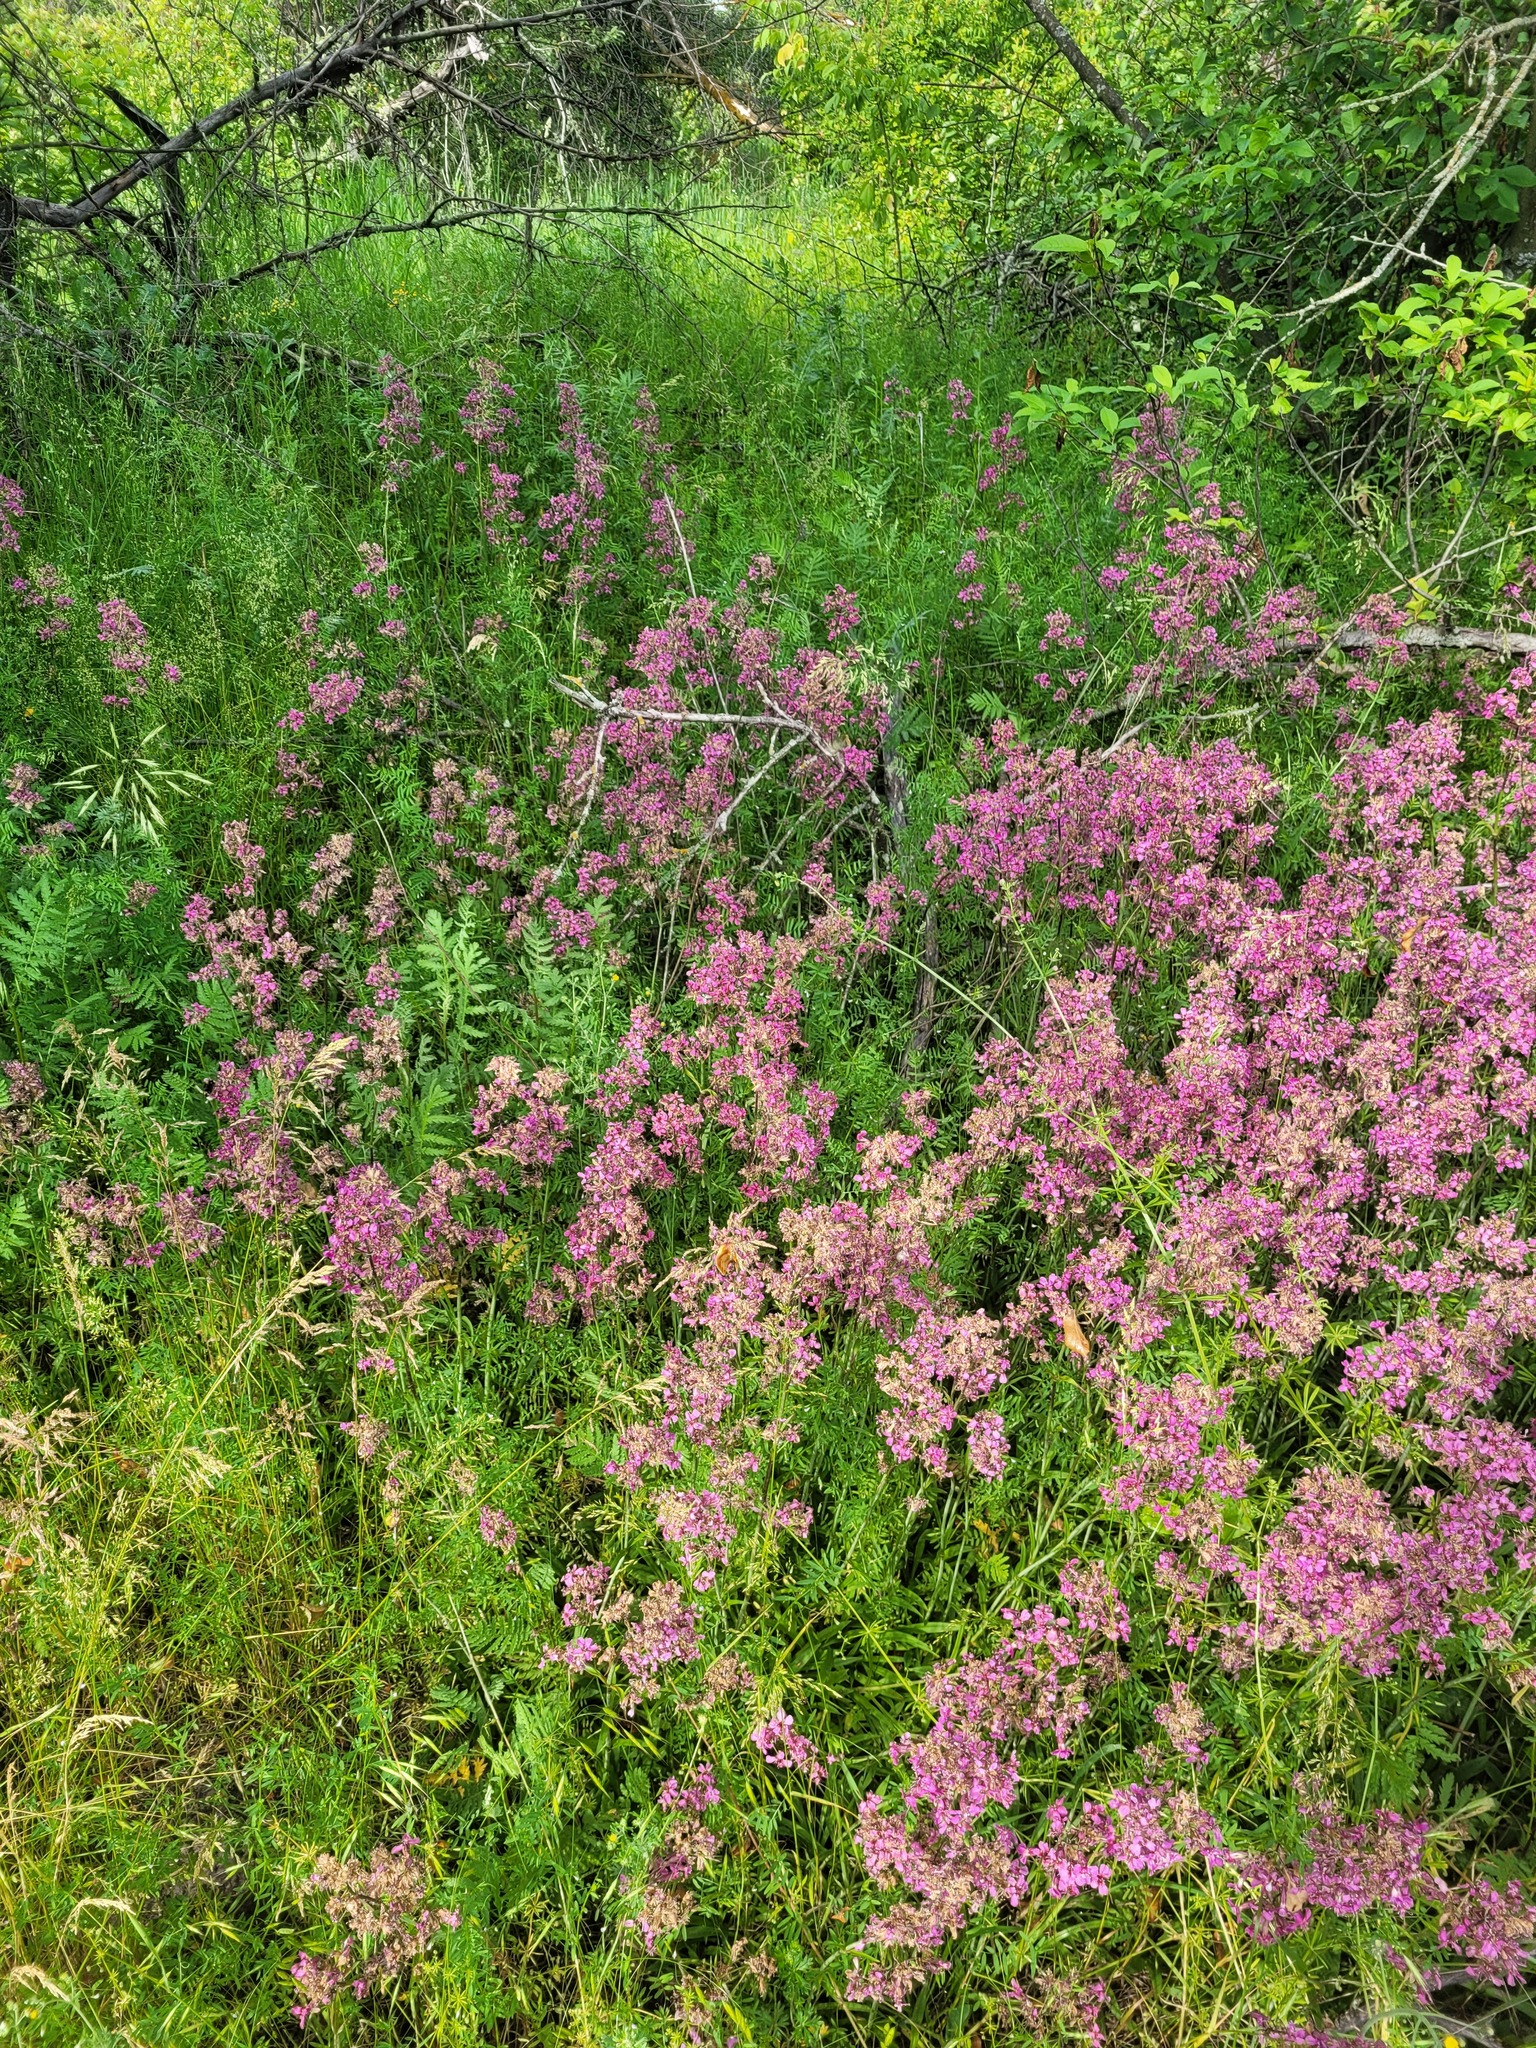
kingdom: Plantae
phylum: Tracheophyta
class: Magnoliopsida
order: Caryophyllales
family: Caryophyllaceae
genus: Viscaria
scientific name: Viscaria vulgaris
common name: Clammy campion
